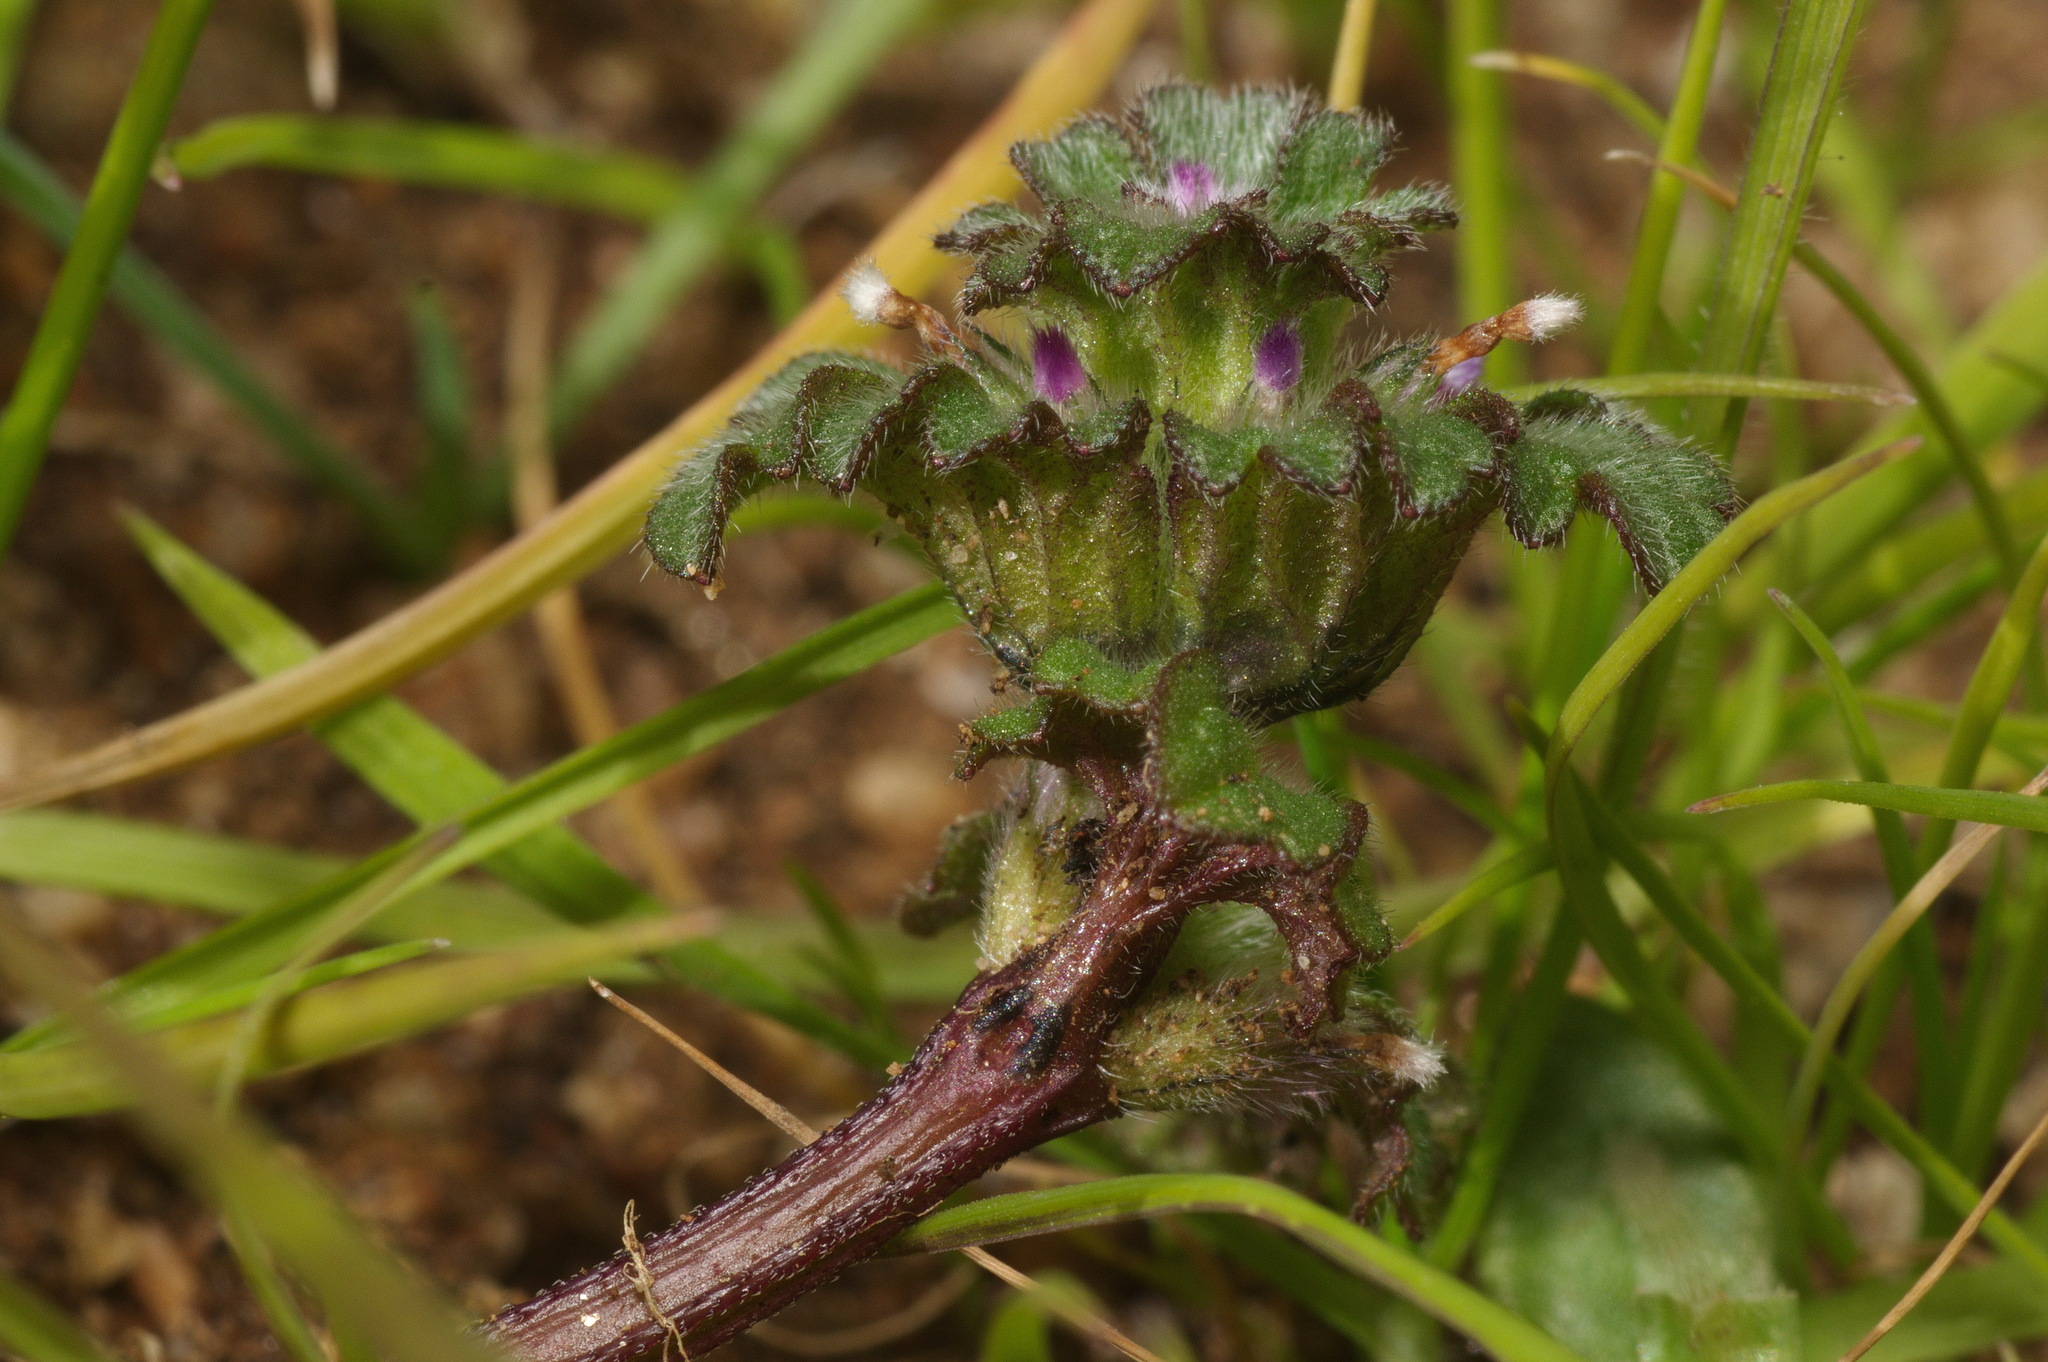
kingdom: Plantae
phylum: Tracheophyta
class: Magnoliopsida
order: Lamiales
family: Lamiaceae
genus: Lamium
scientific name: Lamium amplexicaule
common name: Henbit dead-nettle
